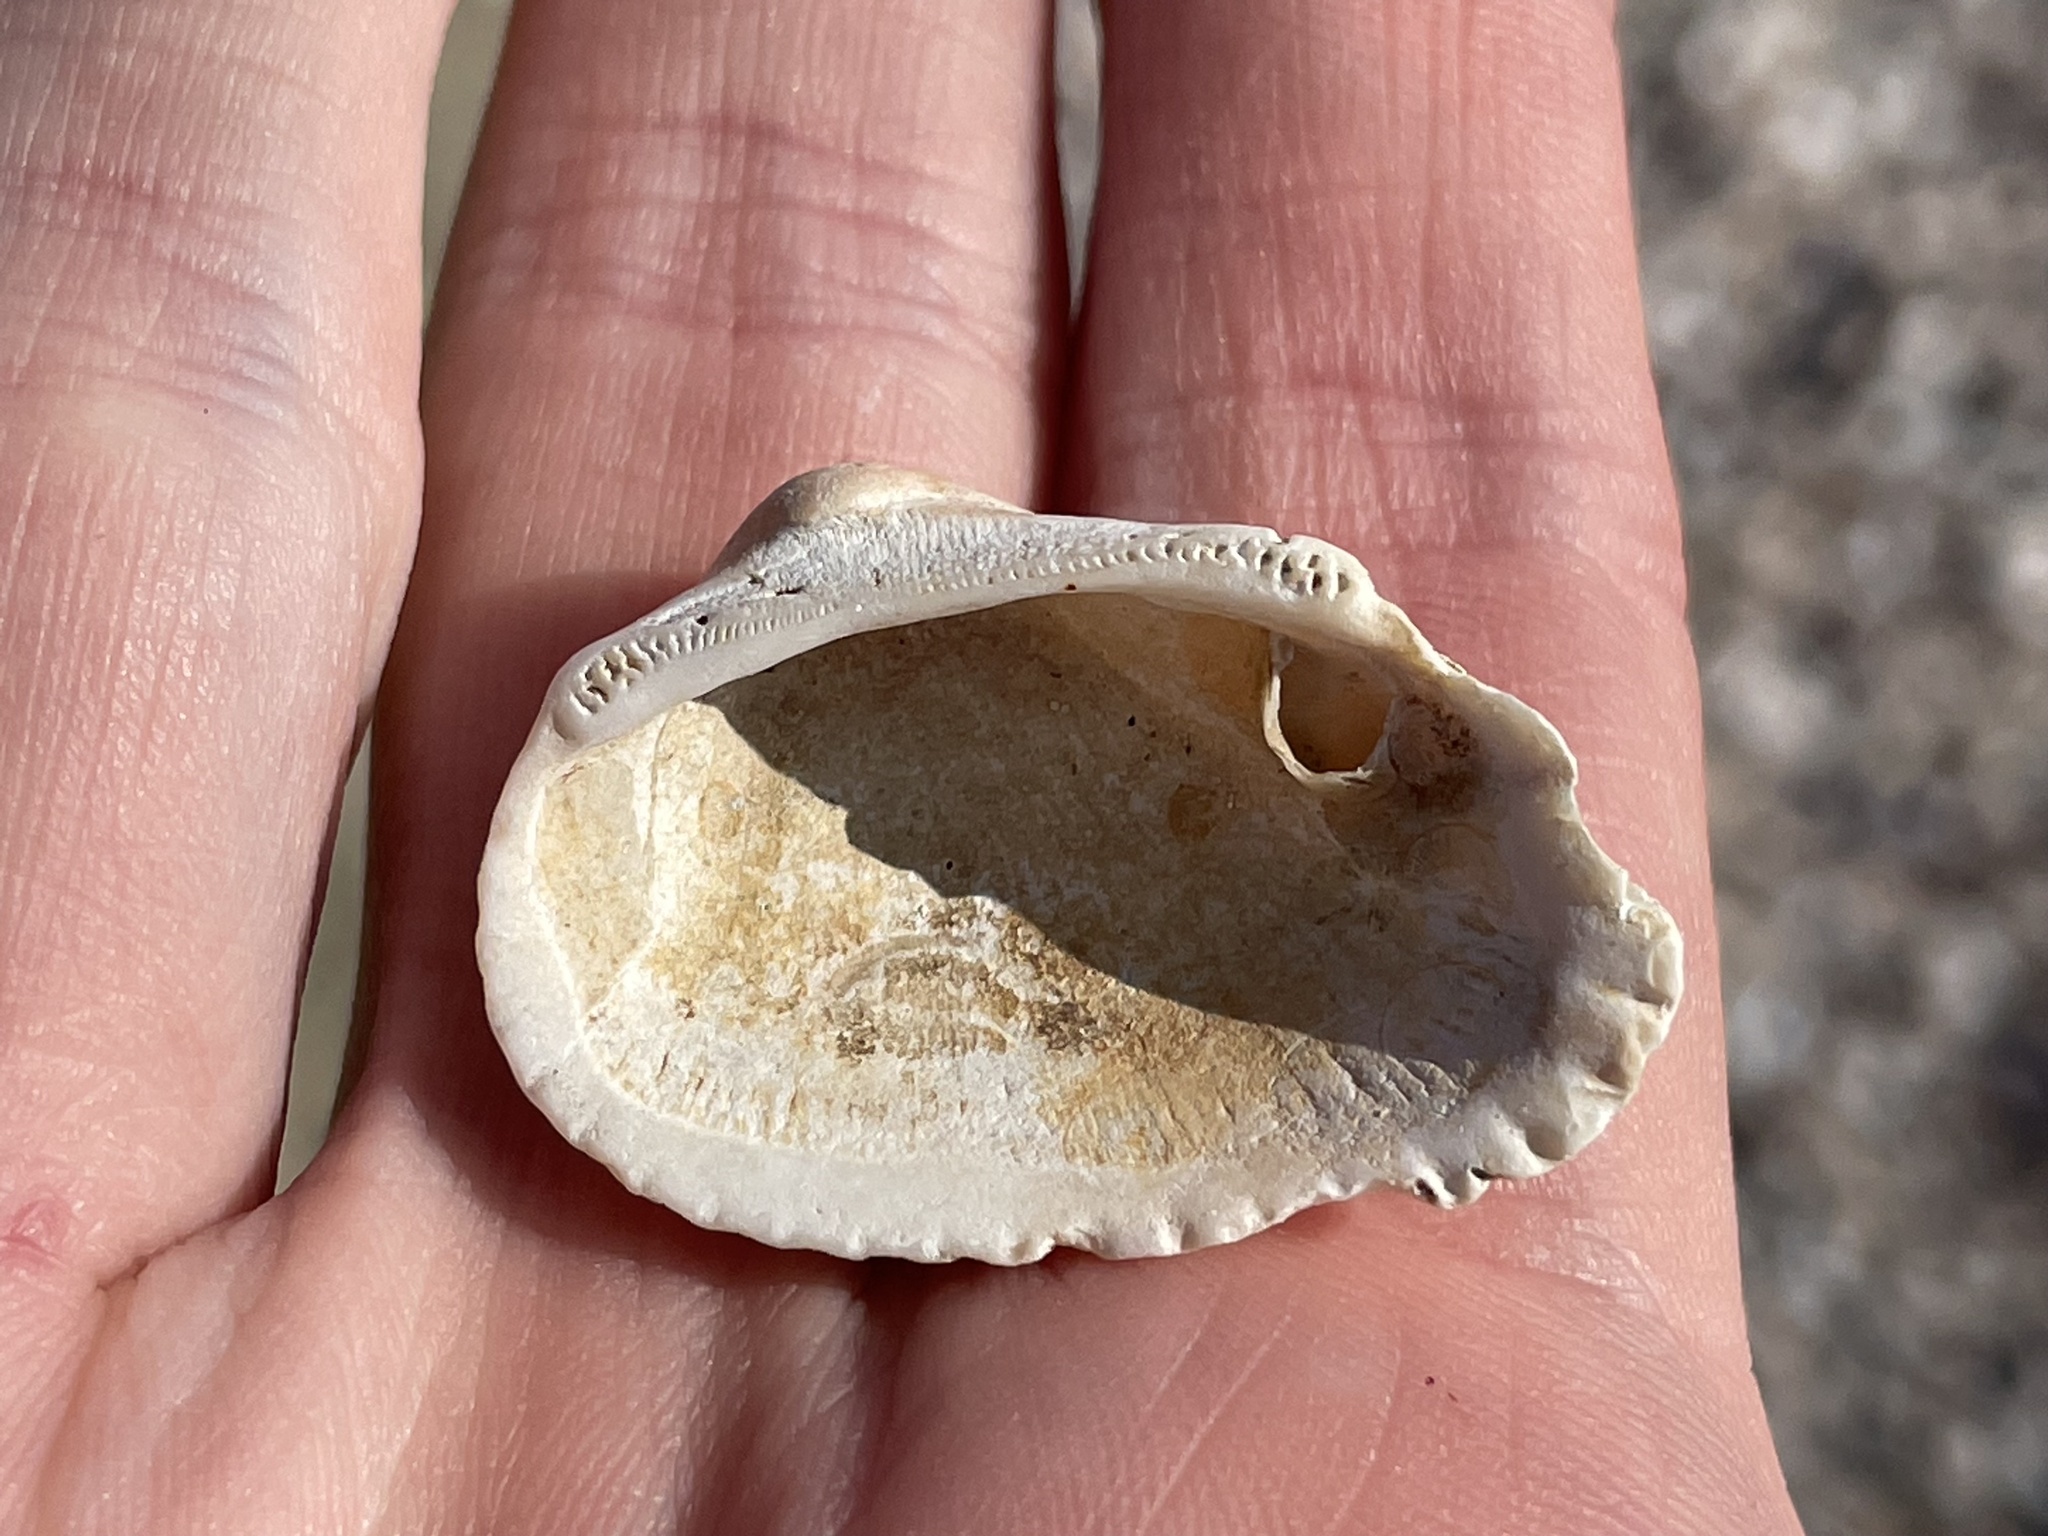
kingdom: Animalia
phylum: Mollusca
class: Bivalvia
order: Arcida
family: Arcidae
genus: Anadara
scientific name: Anadara transversa
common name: Transverse ark
